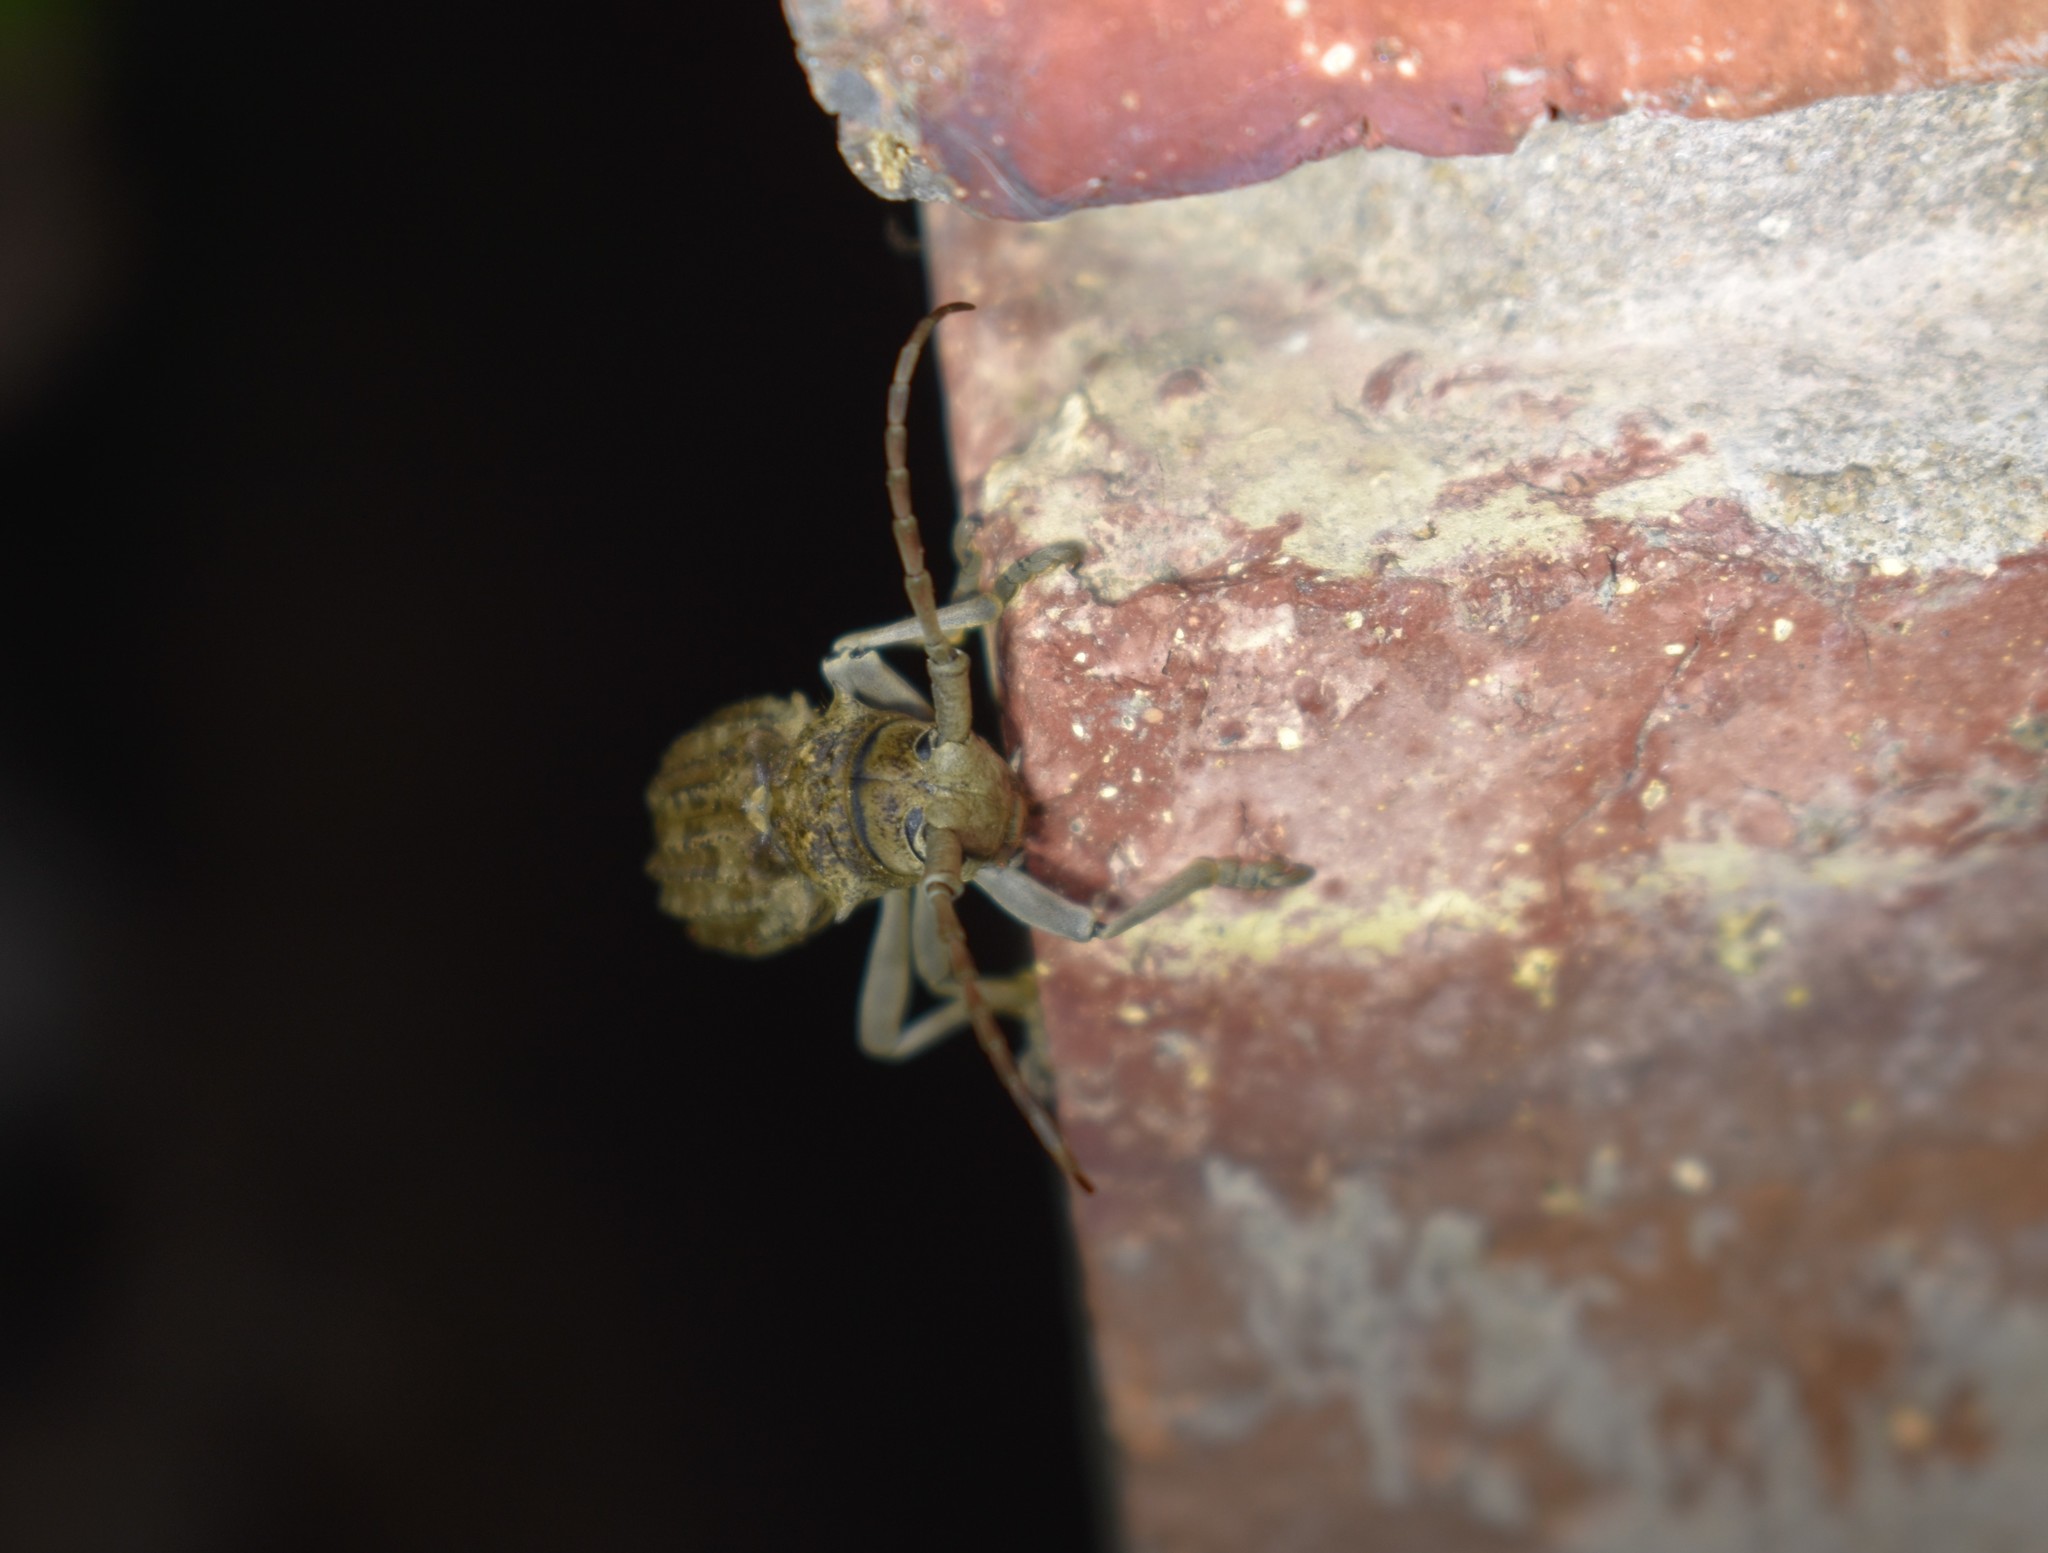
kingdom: Animalia
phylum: Arthropoda
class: Insecta
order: Coleoptera
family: Cerambycidae
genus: Phrissoma
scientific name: Phrissoma crispum
